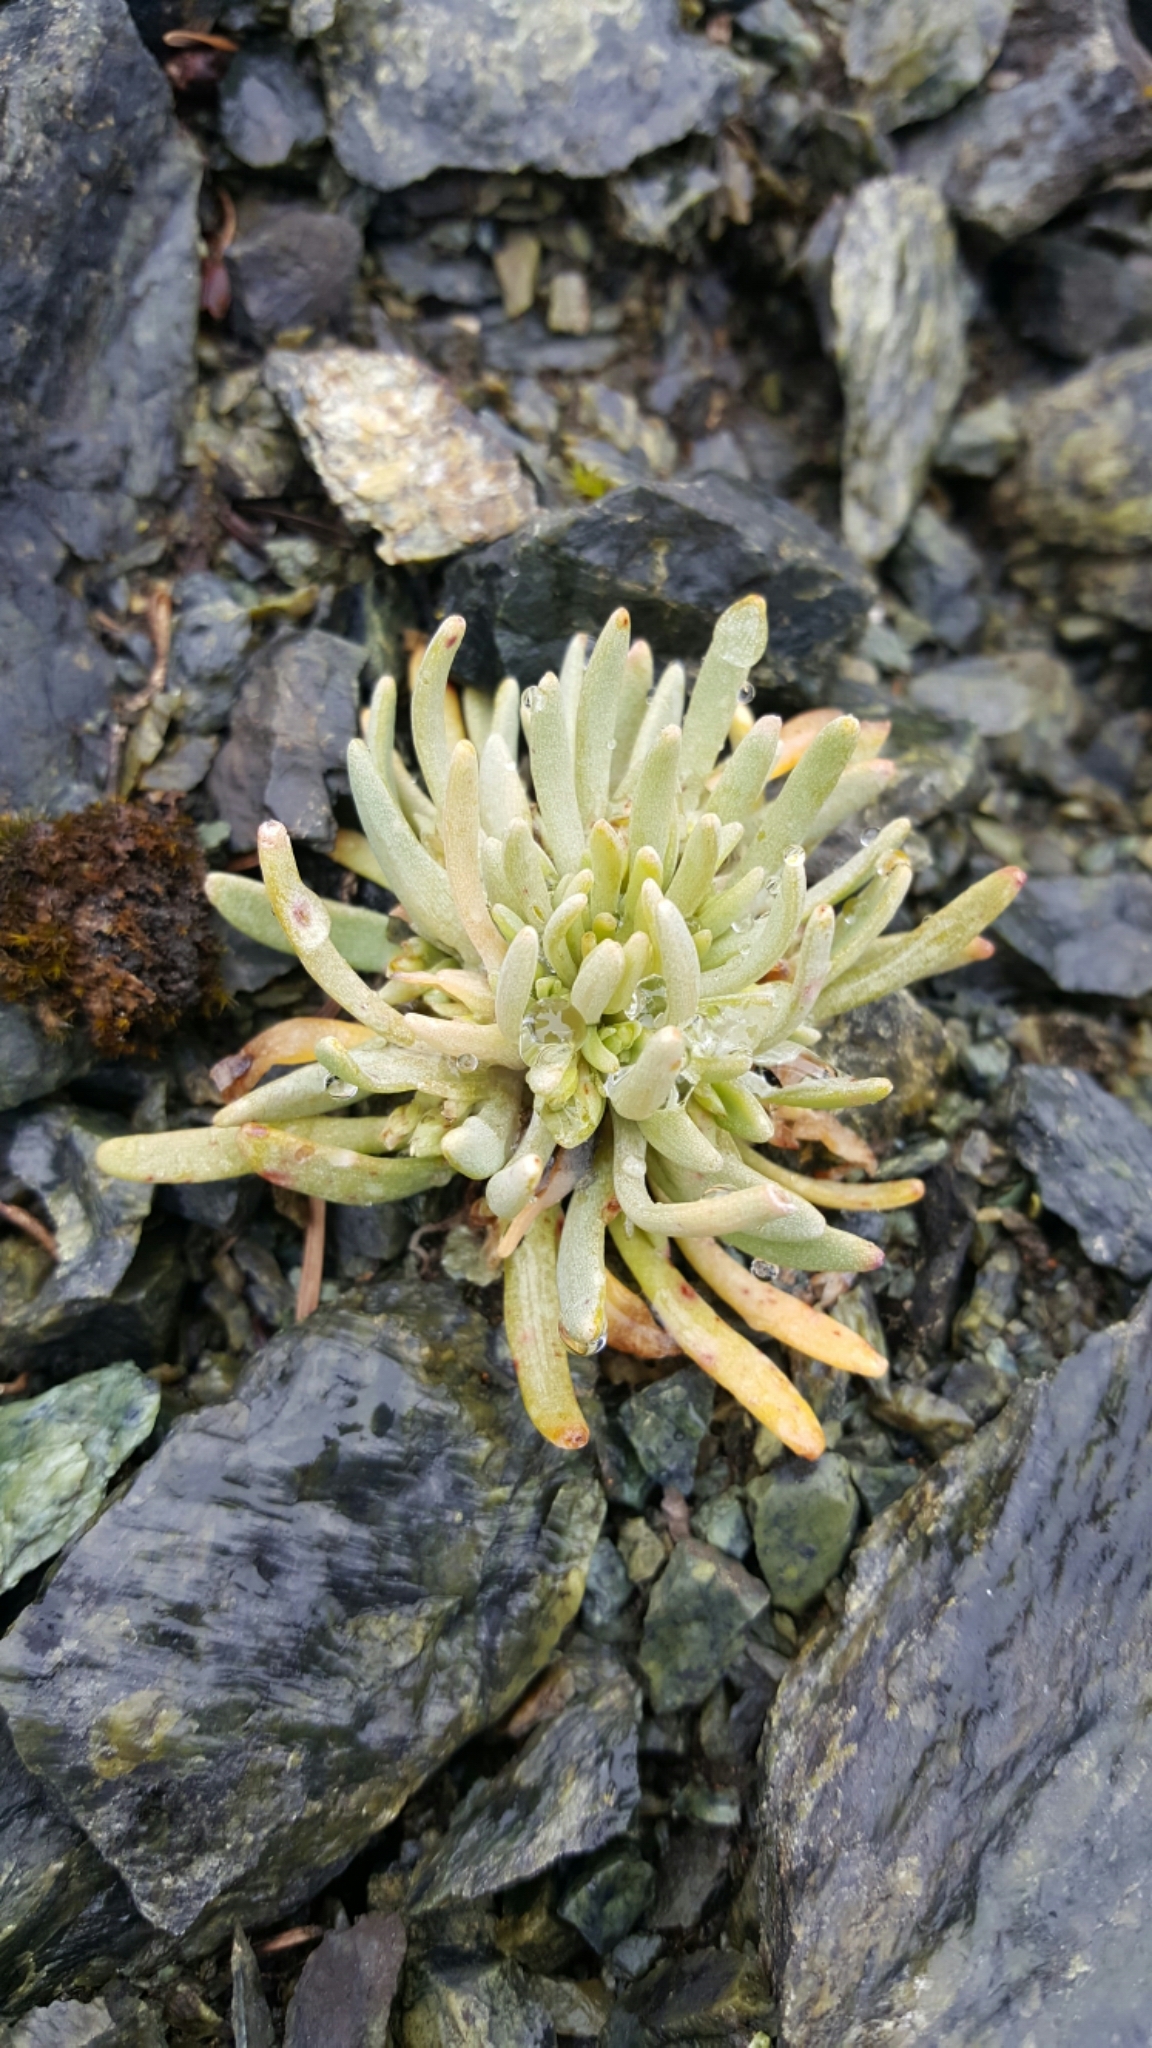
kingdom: Plantae
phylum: Tracheophyta
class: Magnoliopsida
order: Caryophyllales
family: Montiaceae
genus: Claytonia
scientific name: Claytonia exigua
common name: Pale spring beauty
